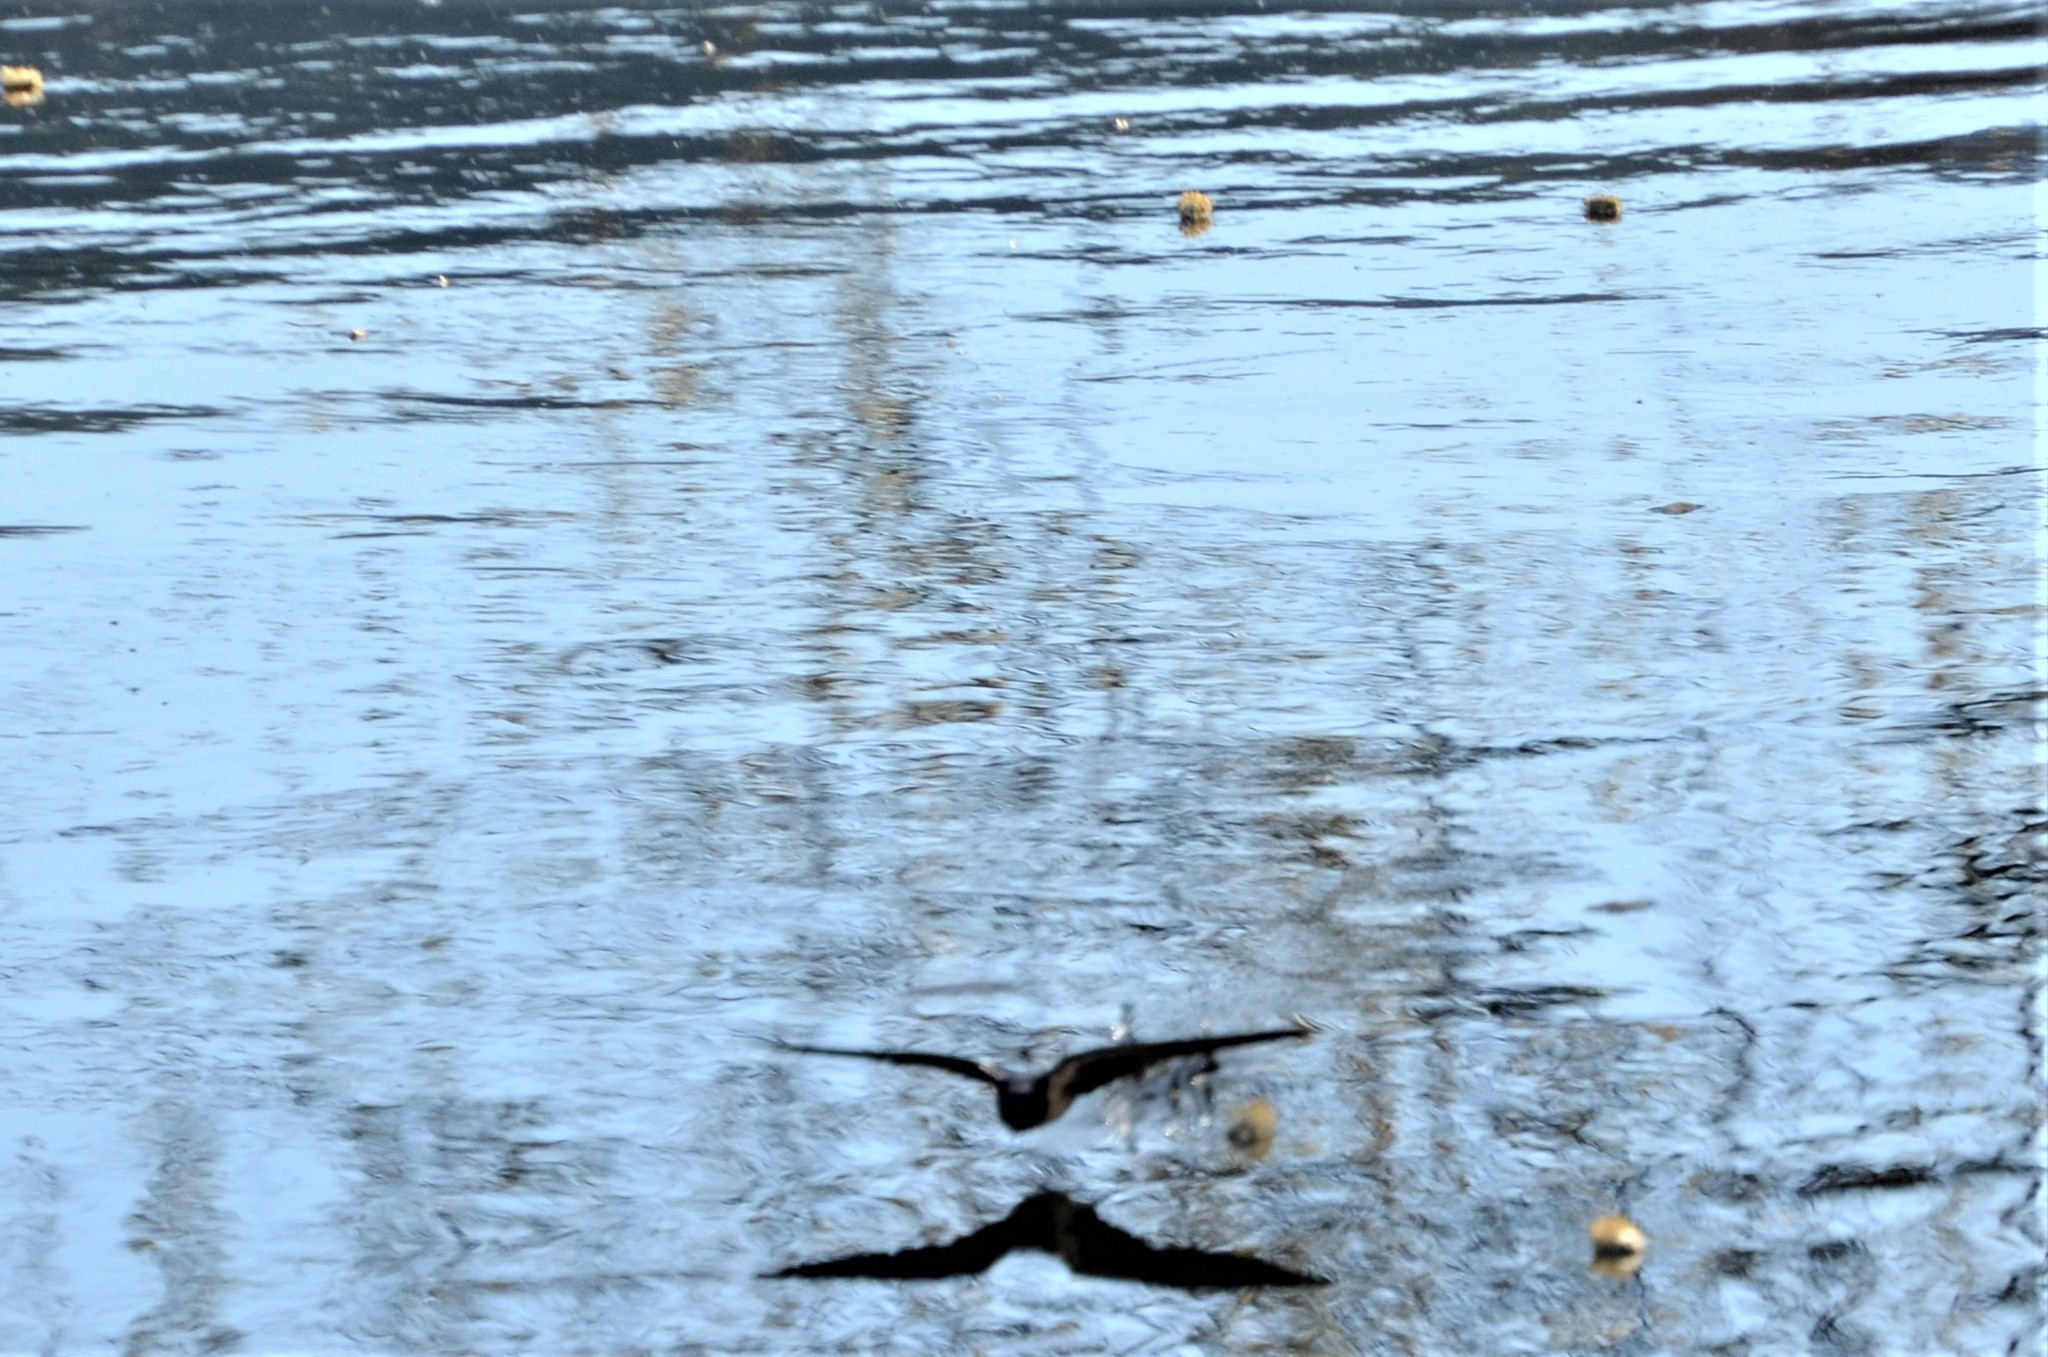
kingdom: Animalia
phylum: Chordata
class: Aves
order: Passeriformes
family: Hirundinidae
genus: Hirundo
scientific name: Hirundo rustica
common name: Barn swallow
